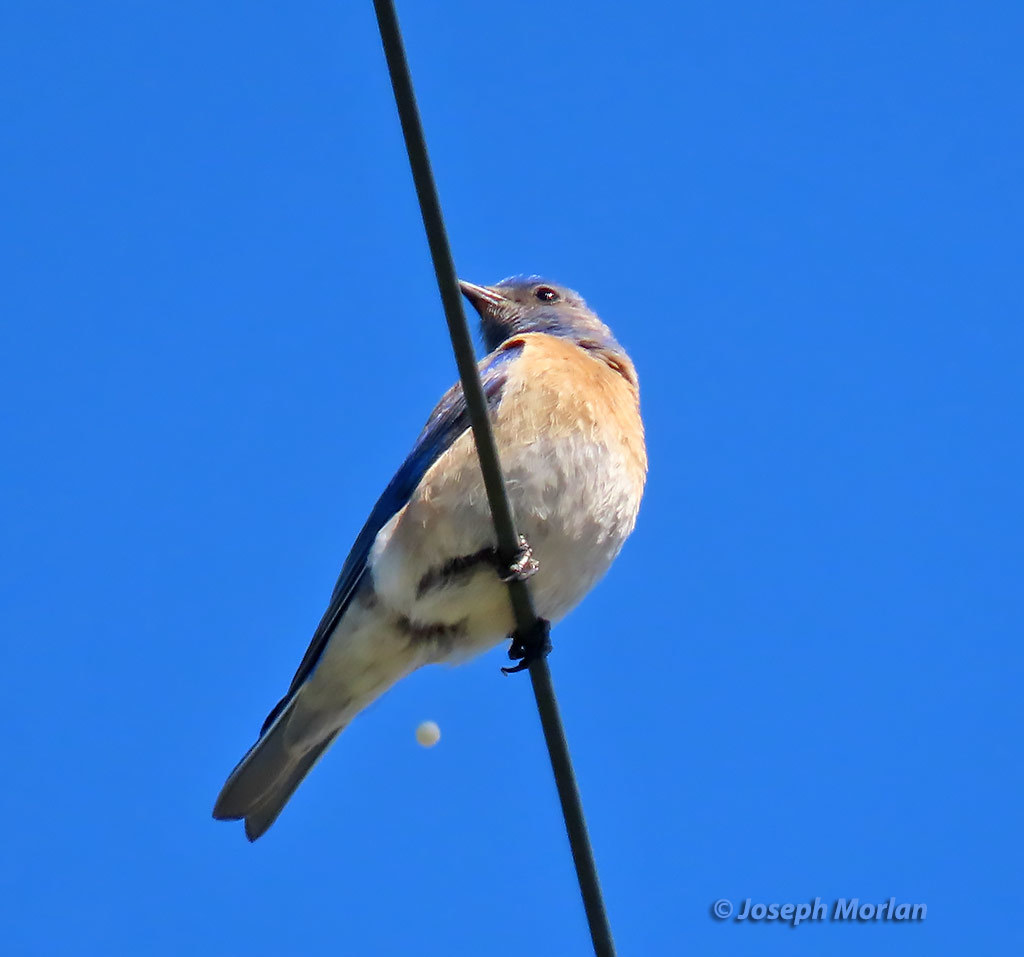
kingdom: Animalia
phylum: Chordata
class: Aves
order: Passeriformes
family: Turdidae
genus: Sialia
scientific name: Sialia mexicana
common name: Western bluebird
